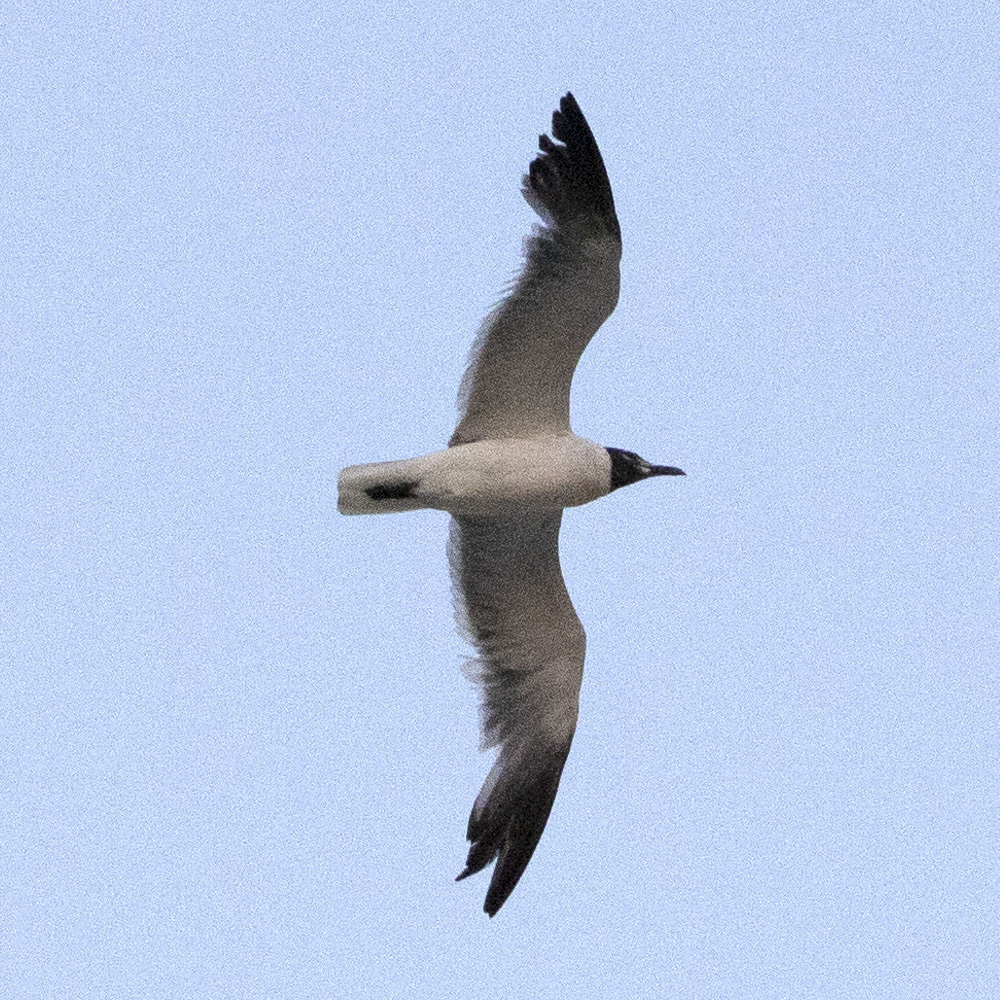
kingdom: Animalia
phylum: Chordata
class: Aves
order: Charadriiformes
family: Laridae
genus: Leucophaeus
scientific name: Leucophaeus atricilla
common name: Laughing gull
